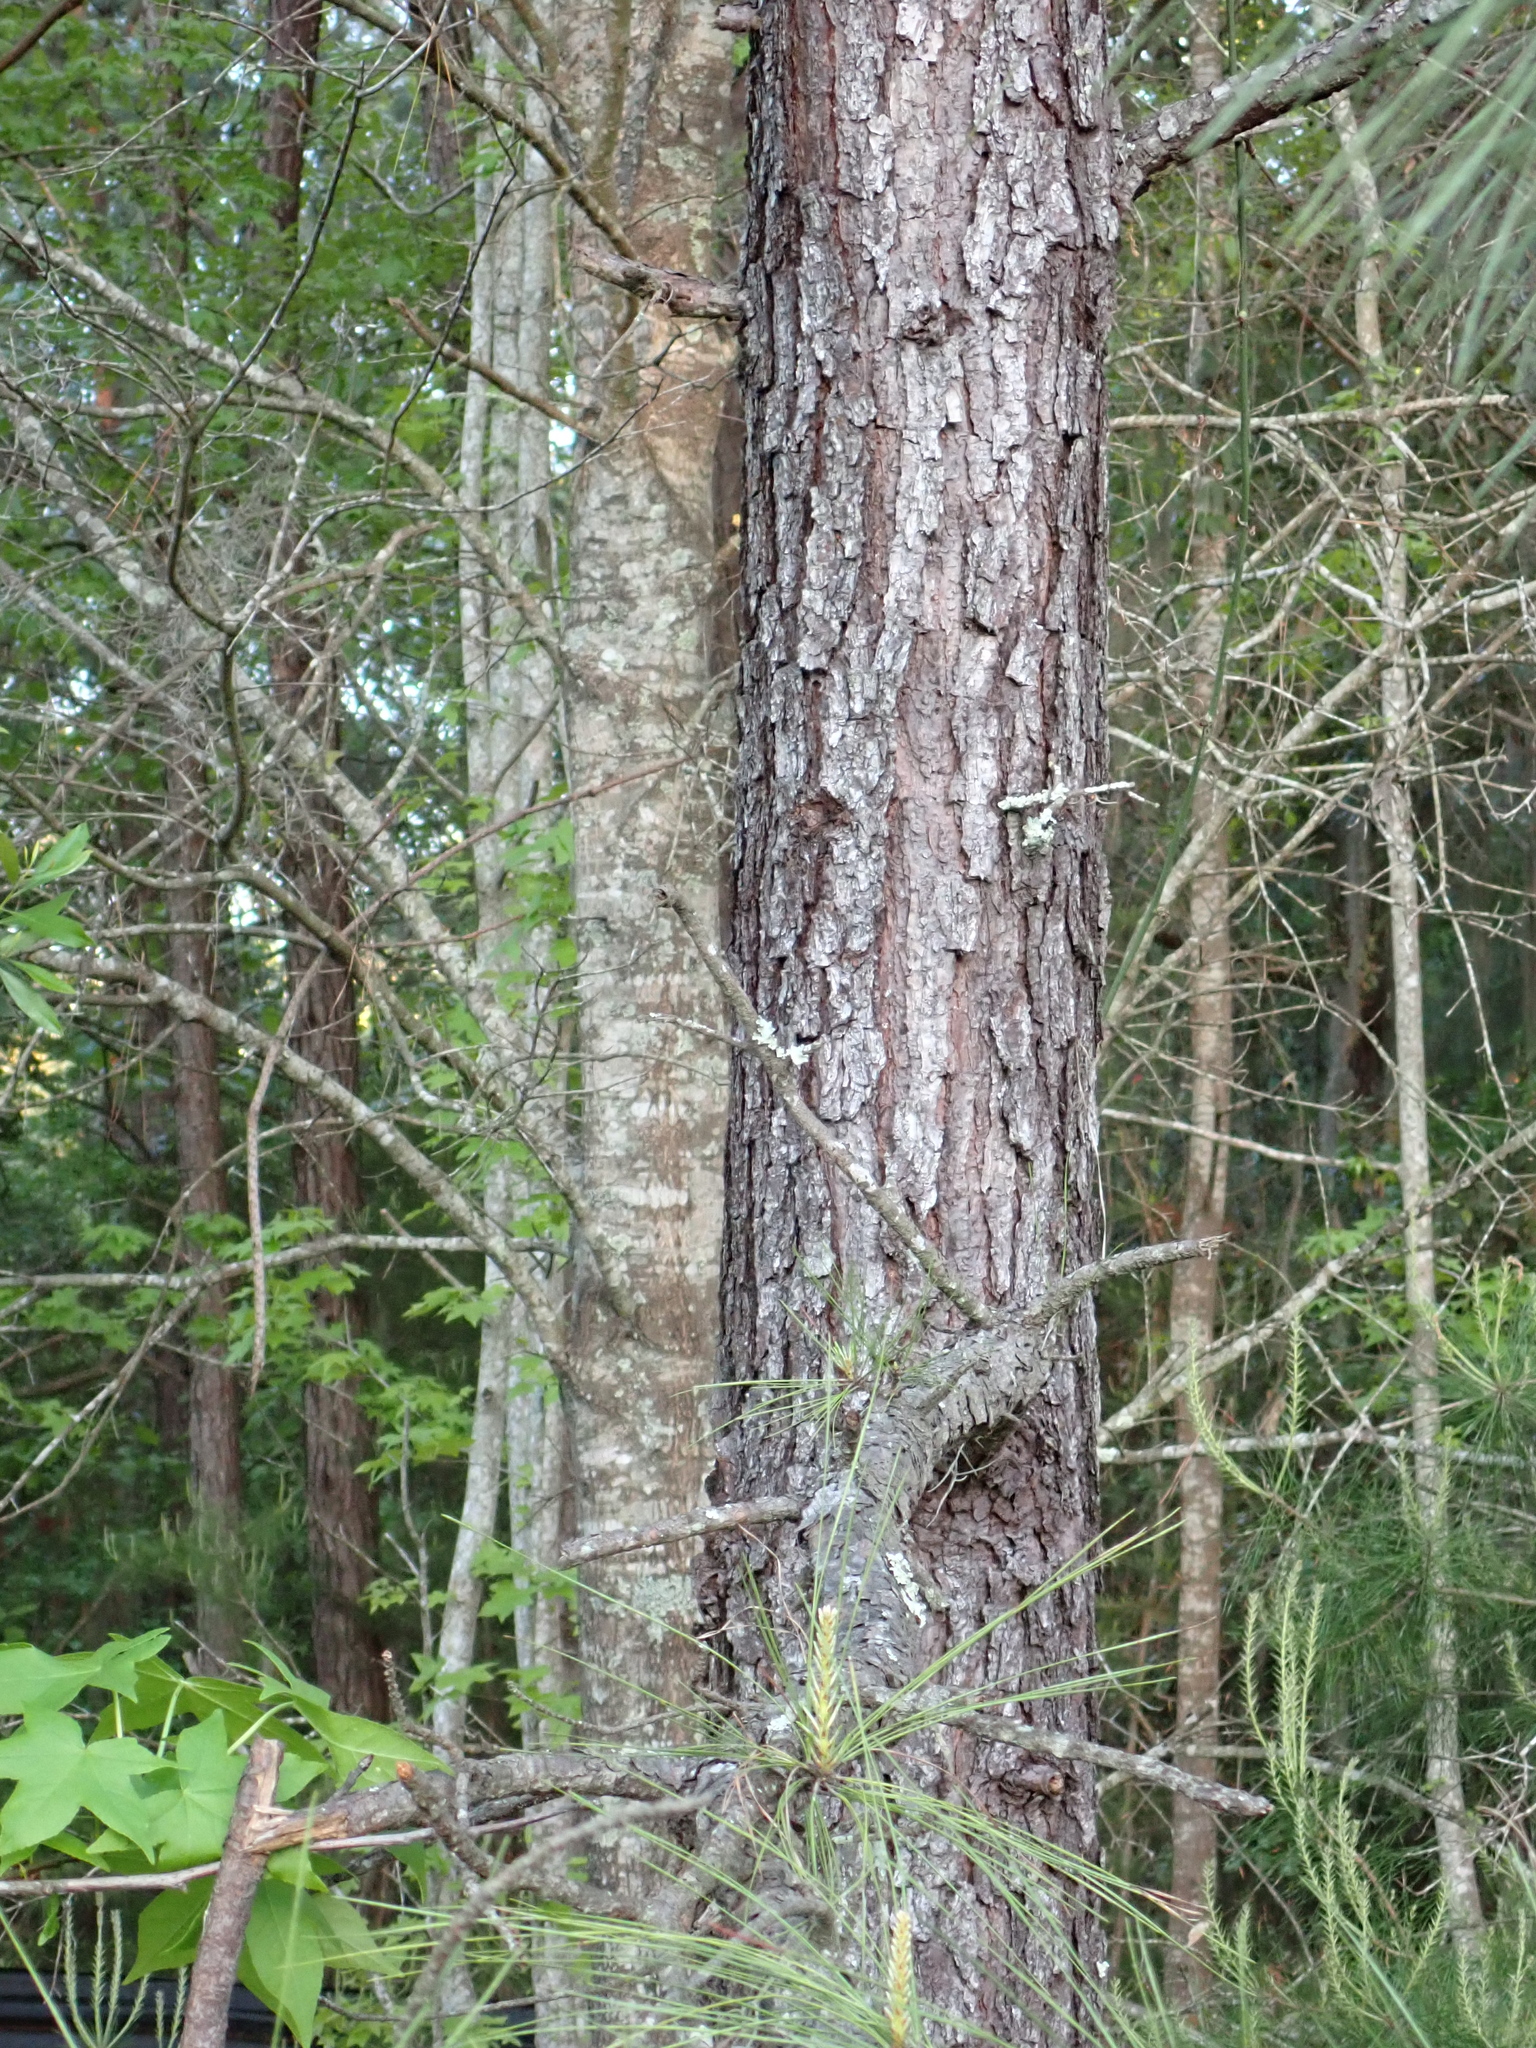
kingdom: Plantae
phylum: Tracheophyta
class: Pinopsida
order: Pinales
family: Pinaceae
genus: Pinus
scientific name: Pinus taeda
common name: Loblolly pine
